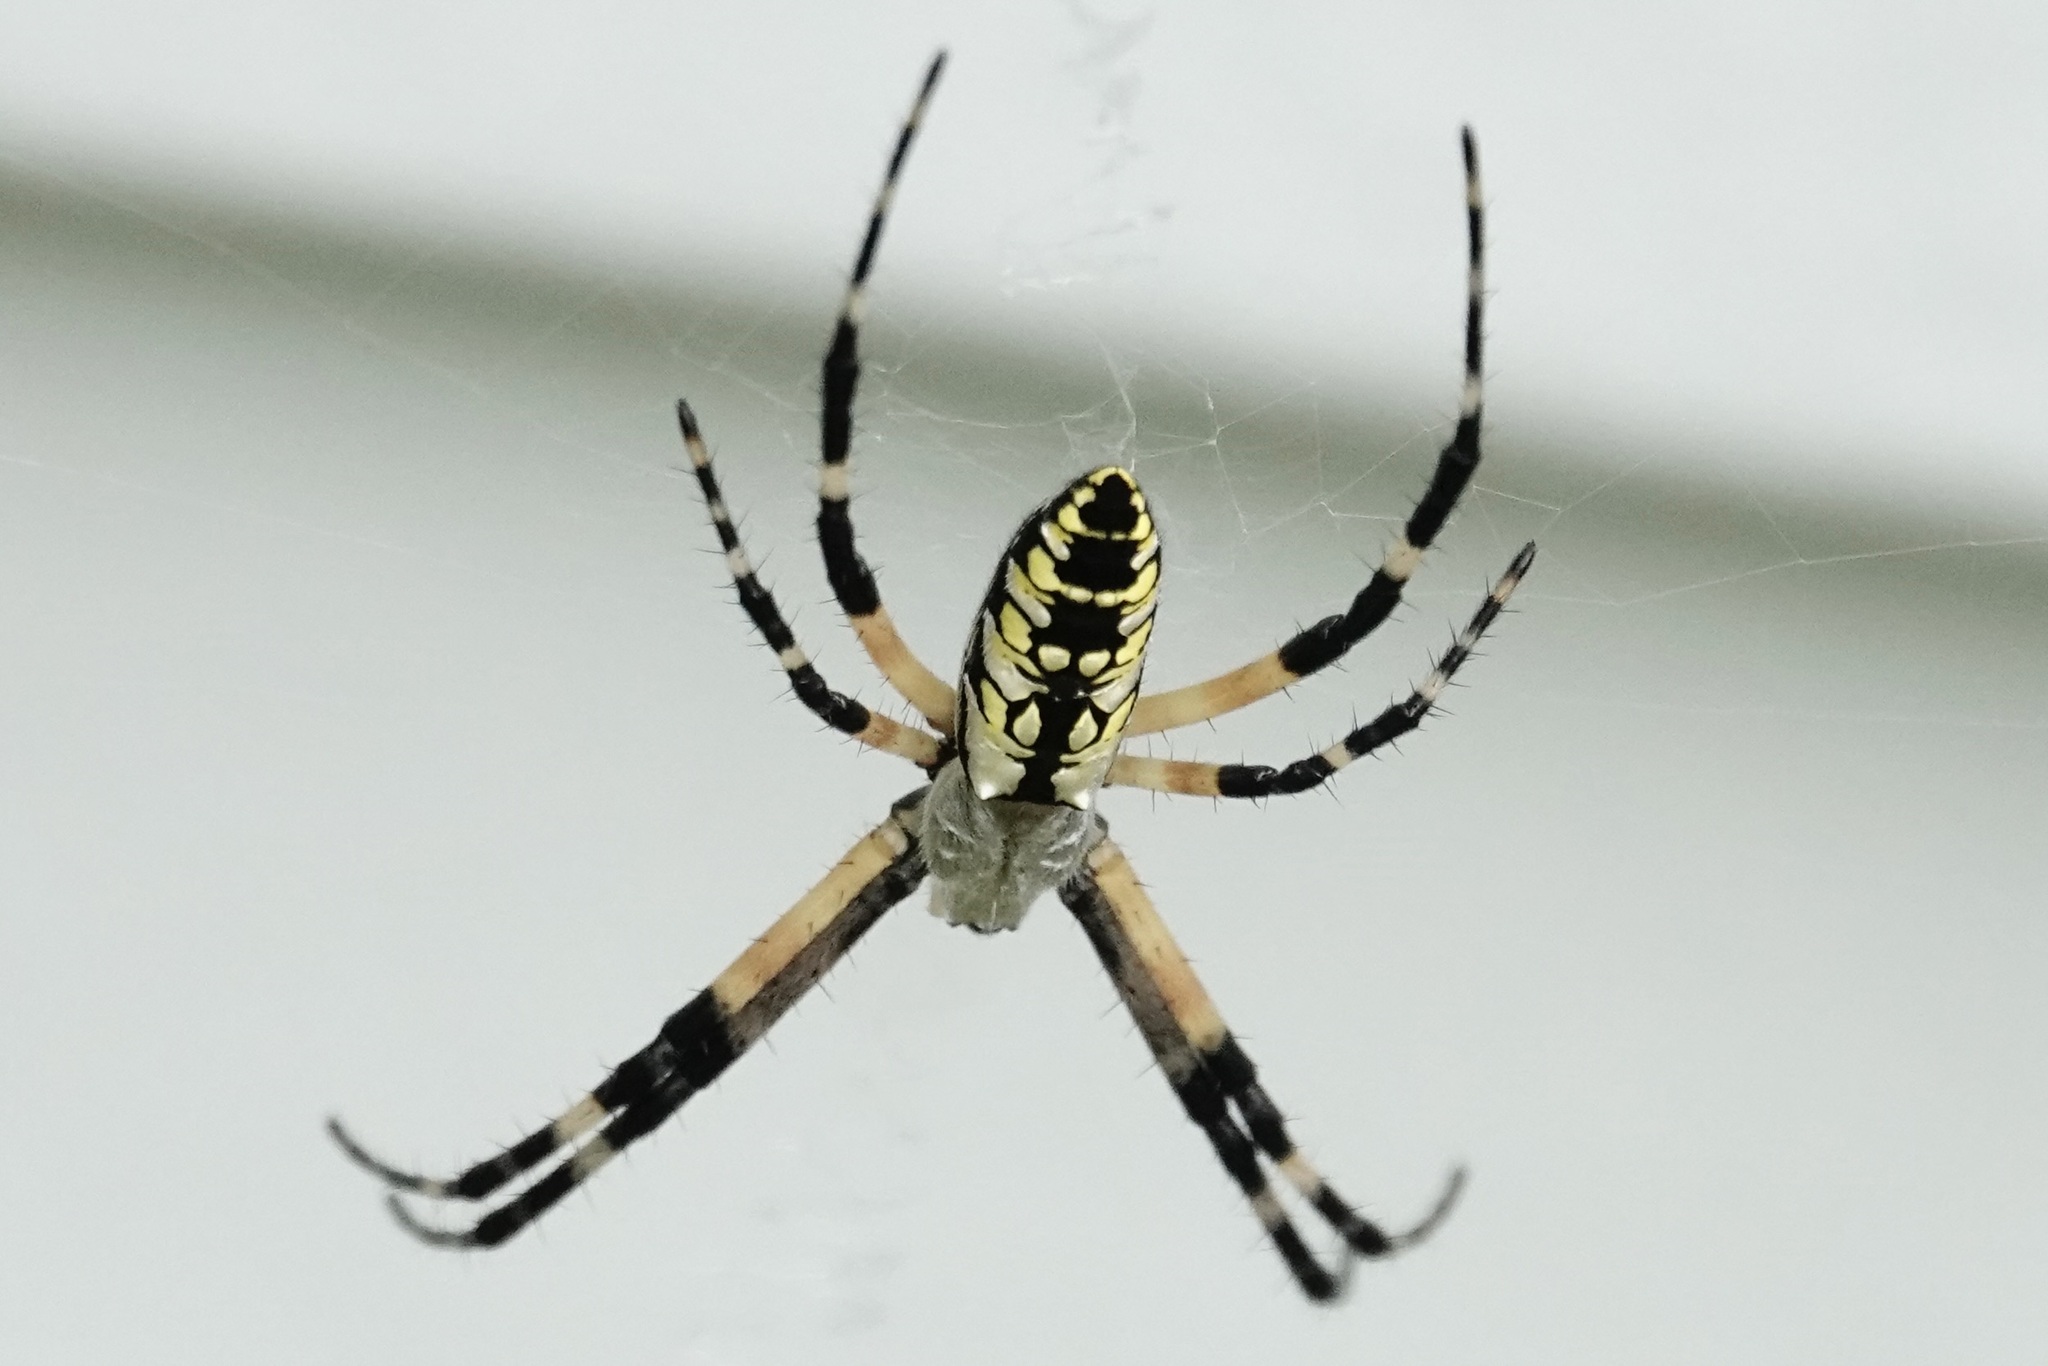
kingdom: Animalia
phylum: Arthropoda
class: Arachnida
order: Araneae
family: Araneidae
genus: Argiope
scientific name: Argiope aurantia
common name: Orb weavers
